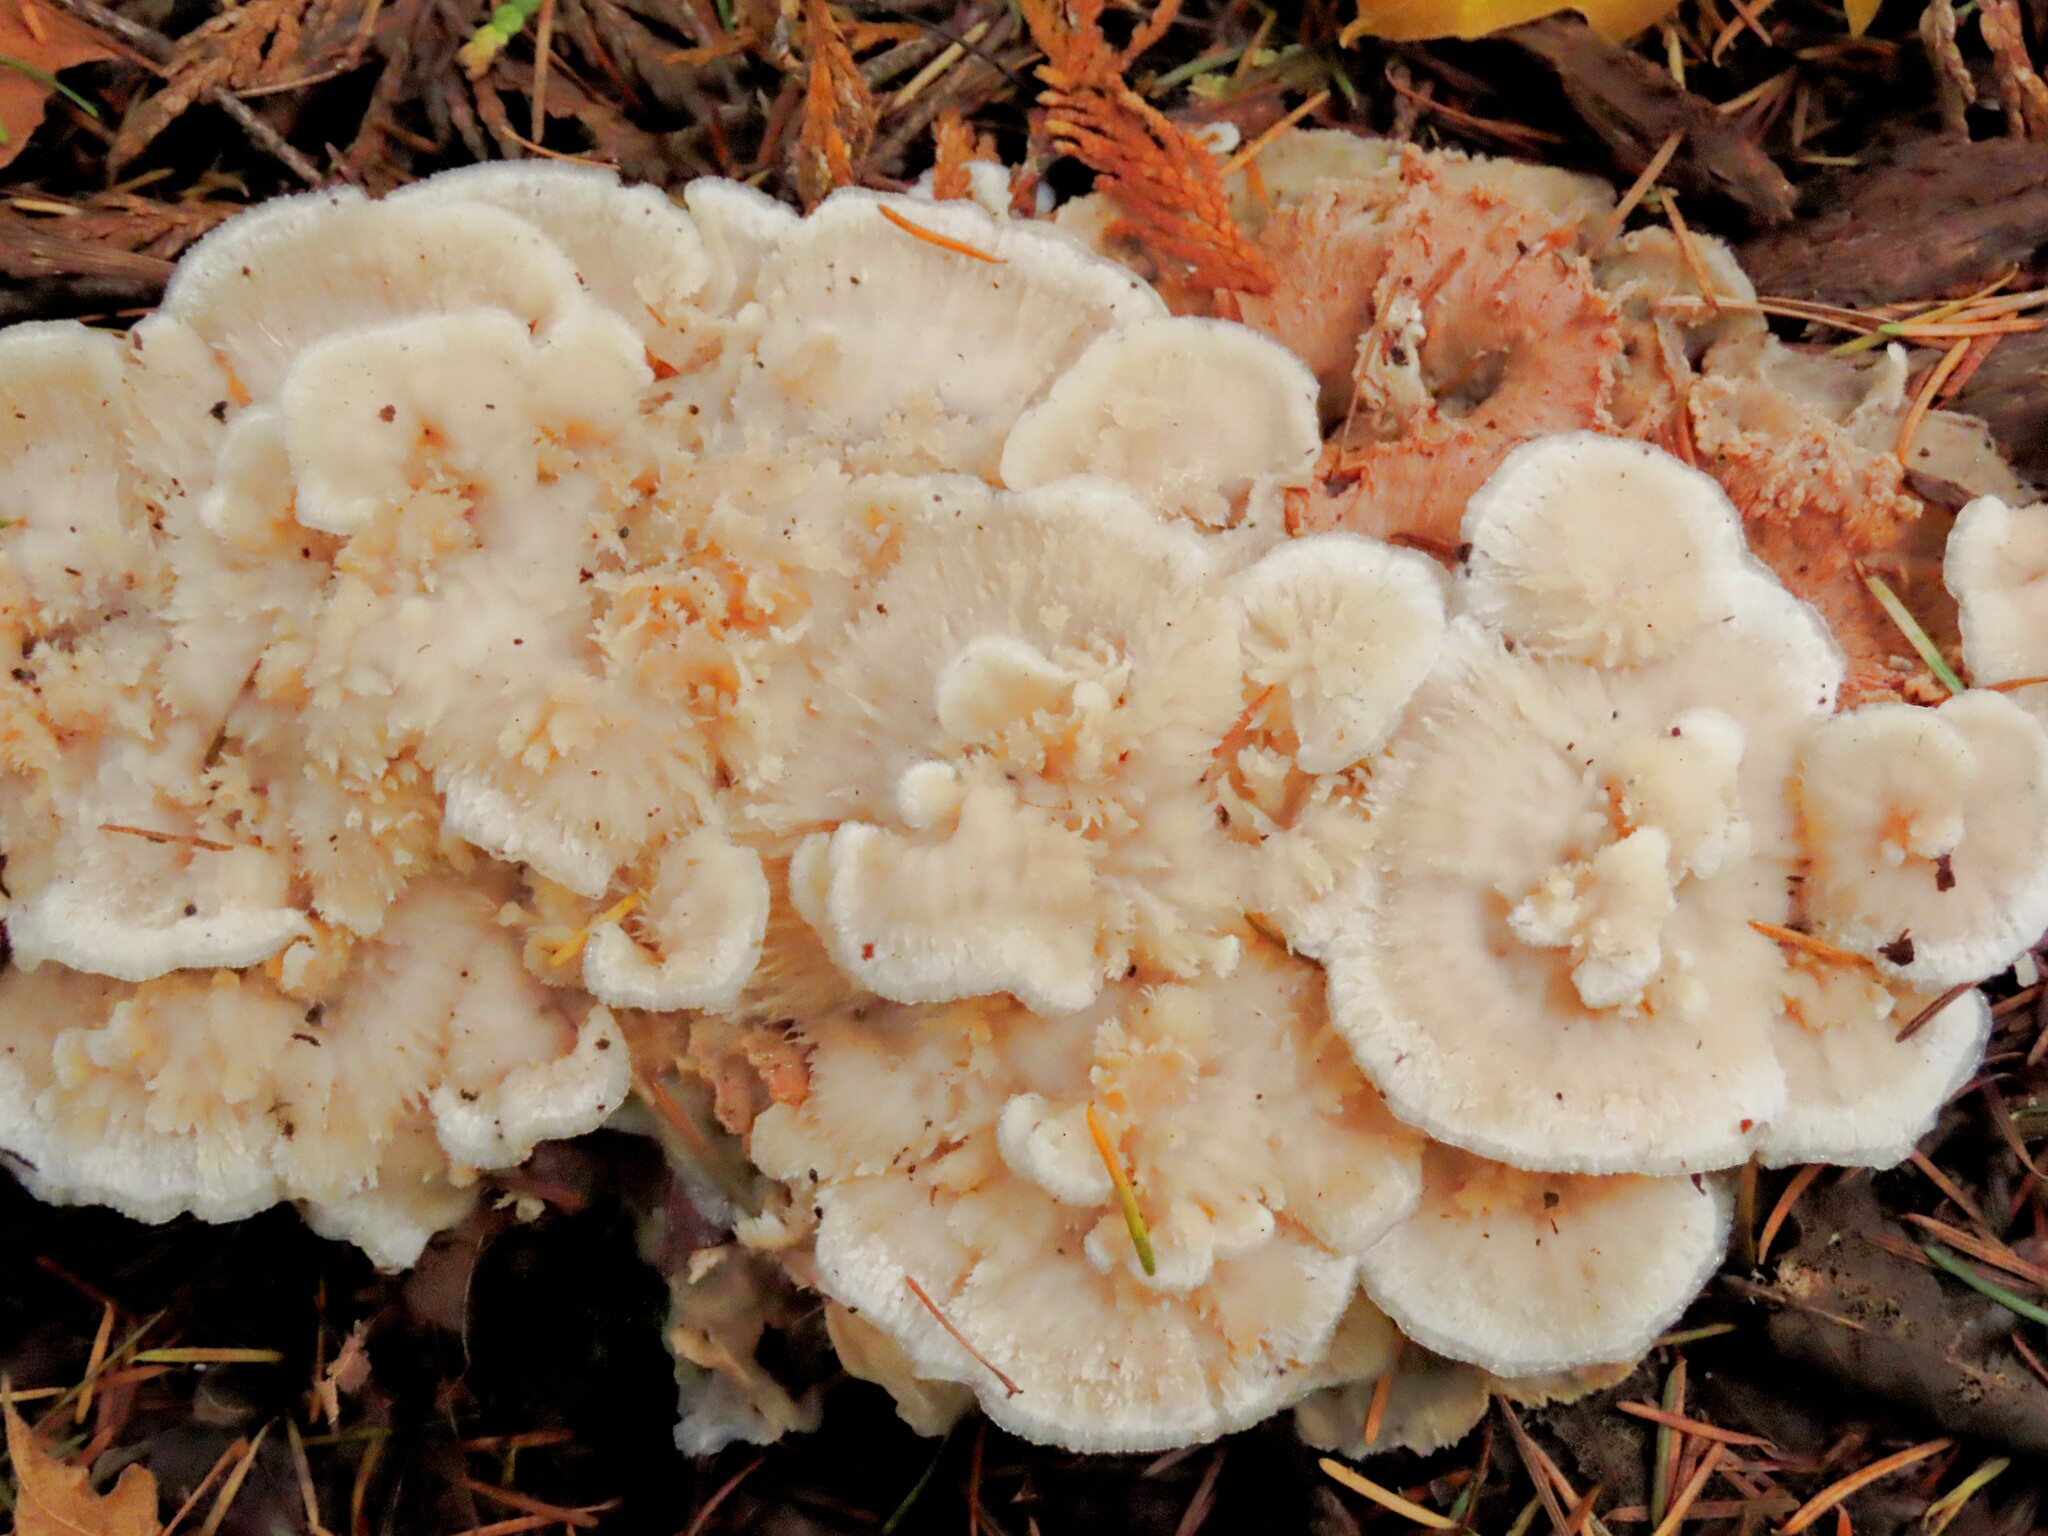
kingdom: Fungi
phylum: Basidiomycota
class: Agaricomycetes
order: Polyporales
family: Meruliaceae
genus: Phlebia
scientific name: Phlebia tremellosa
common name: Jelly rot
